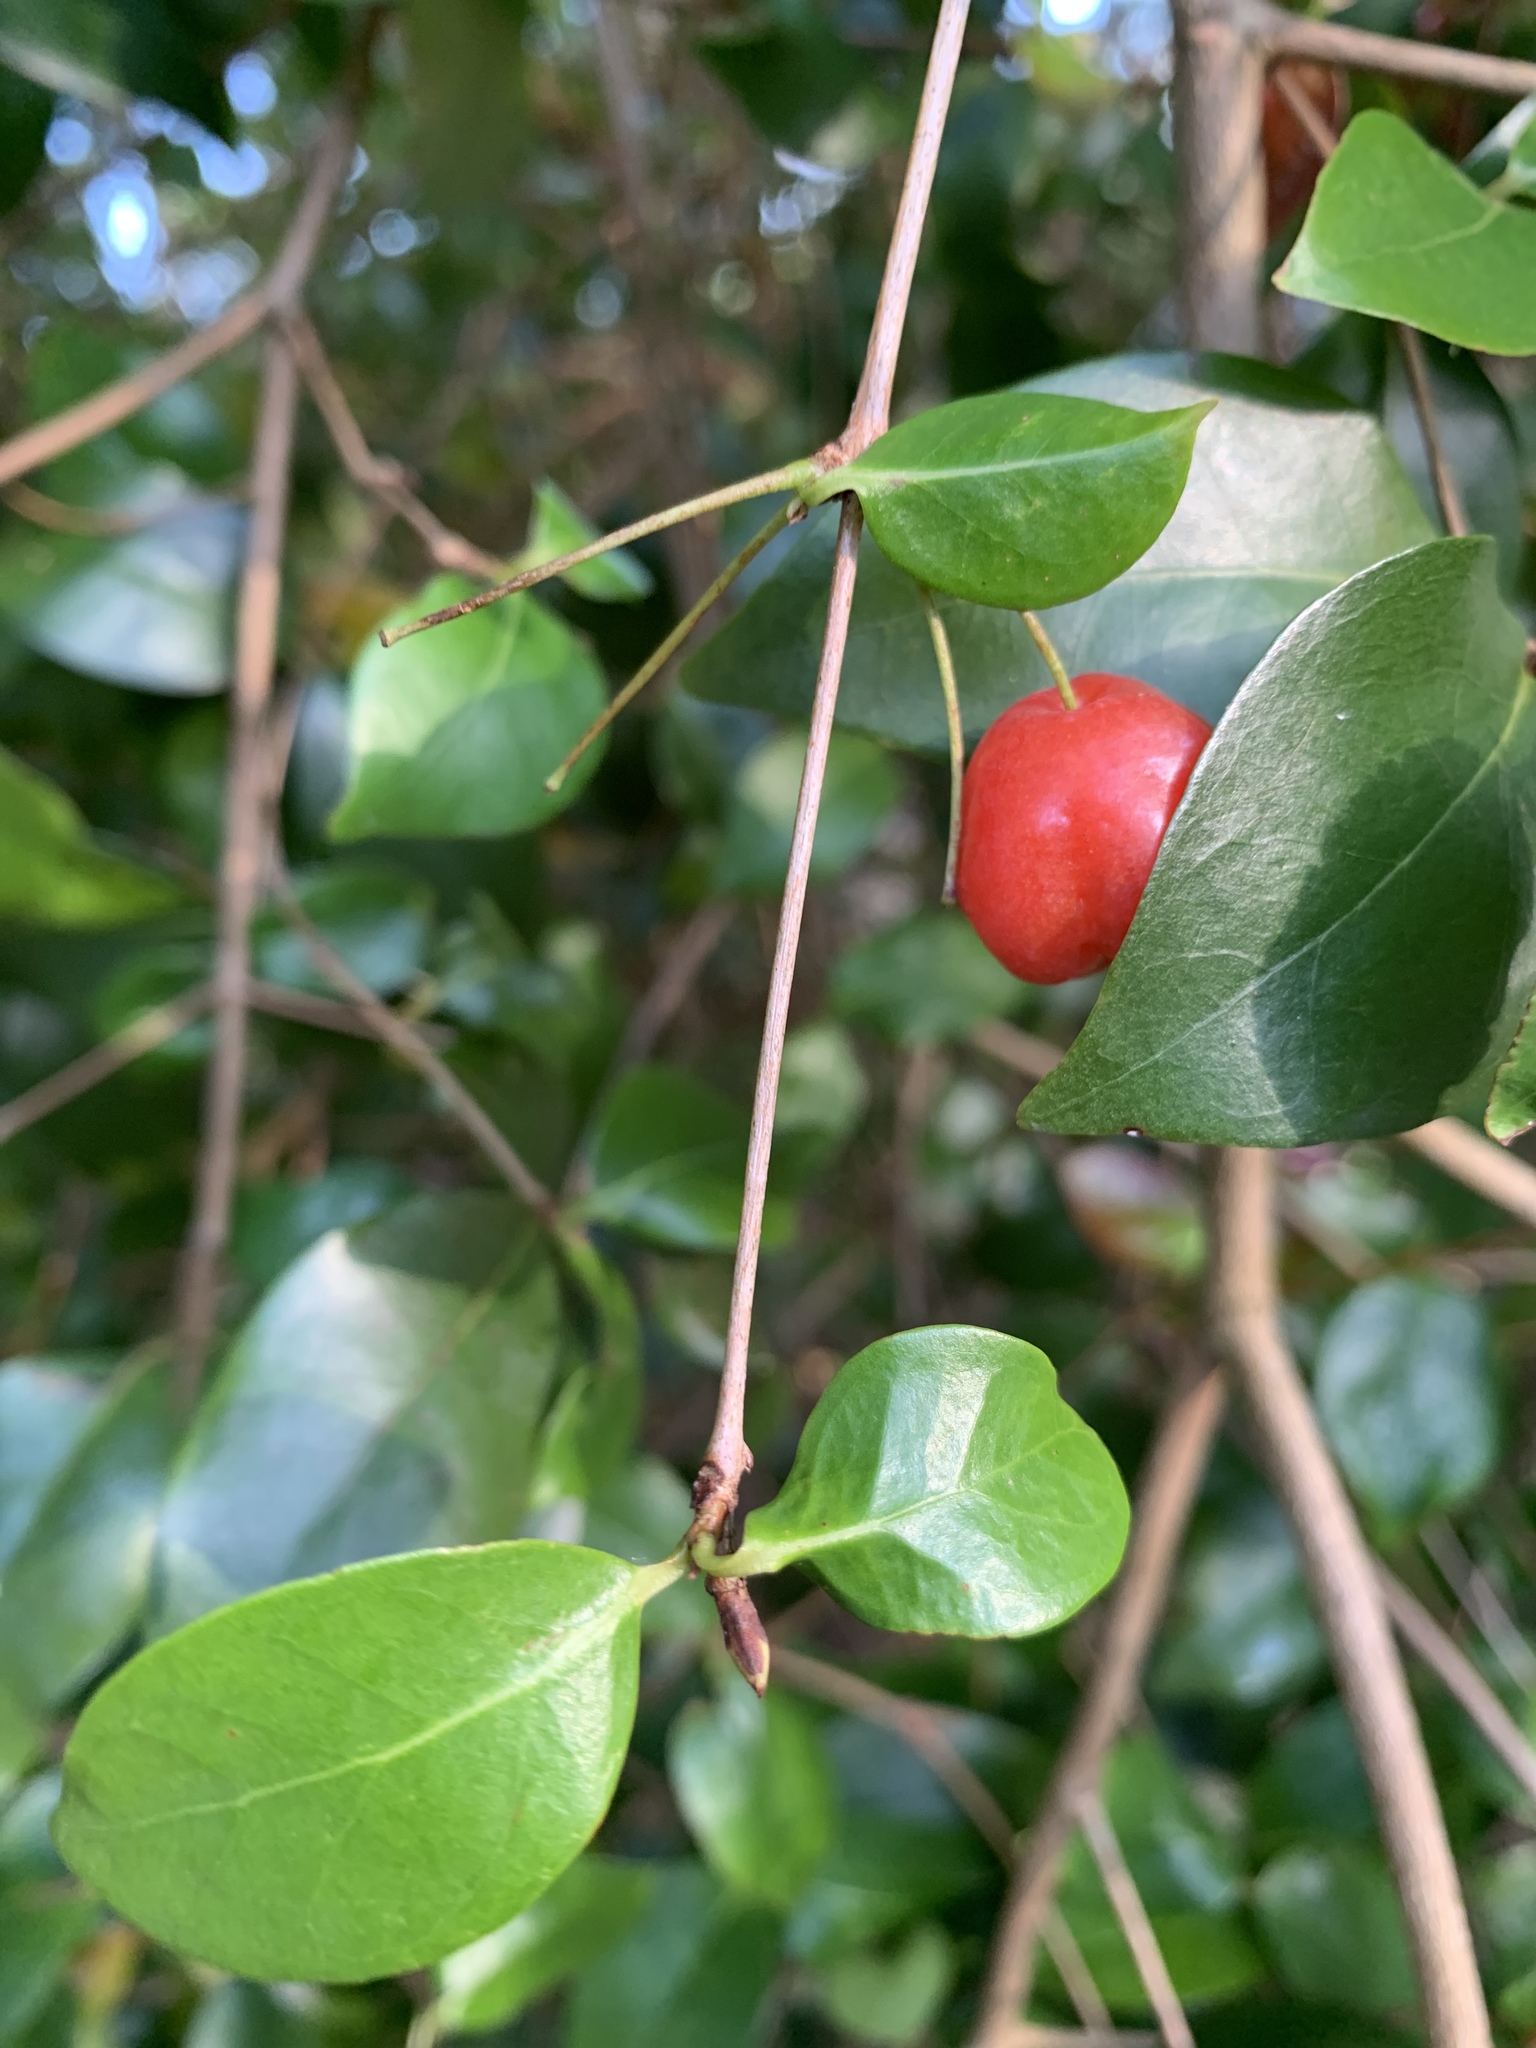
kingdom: Plantae
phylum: Tracheophyta
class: Magnoliopsida
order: Myrtales
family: Myrtaceae
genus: Eugenia
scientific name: Eugenia uniflora
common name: Surinam cherry
